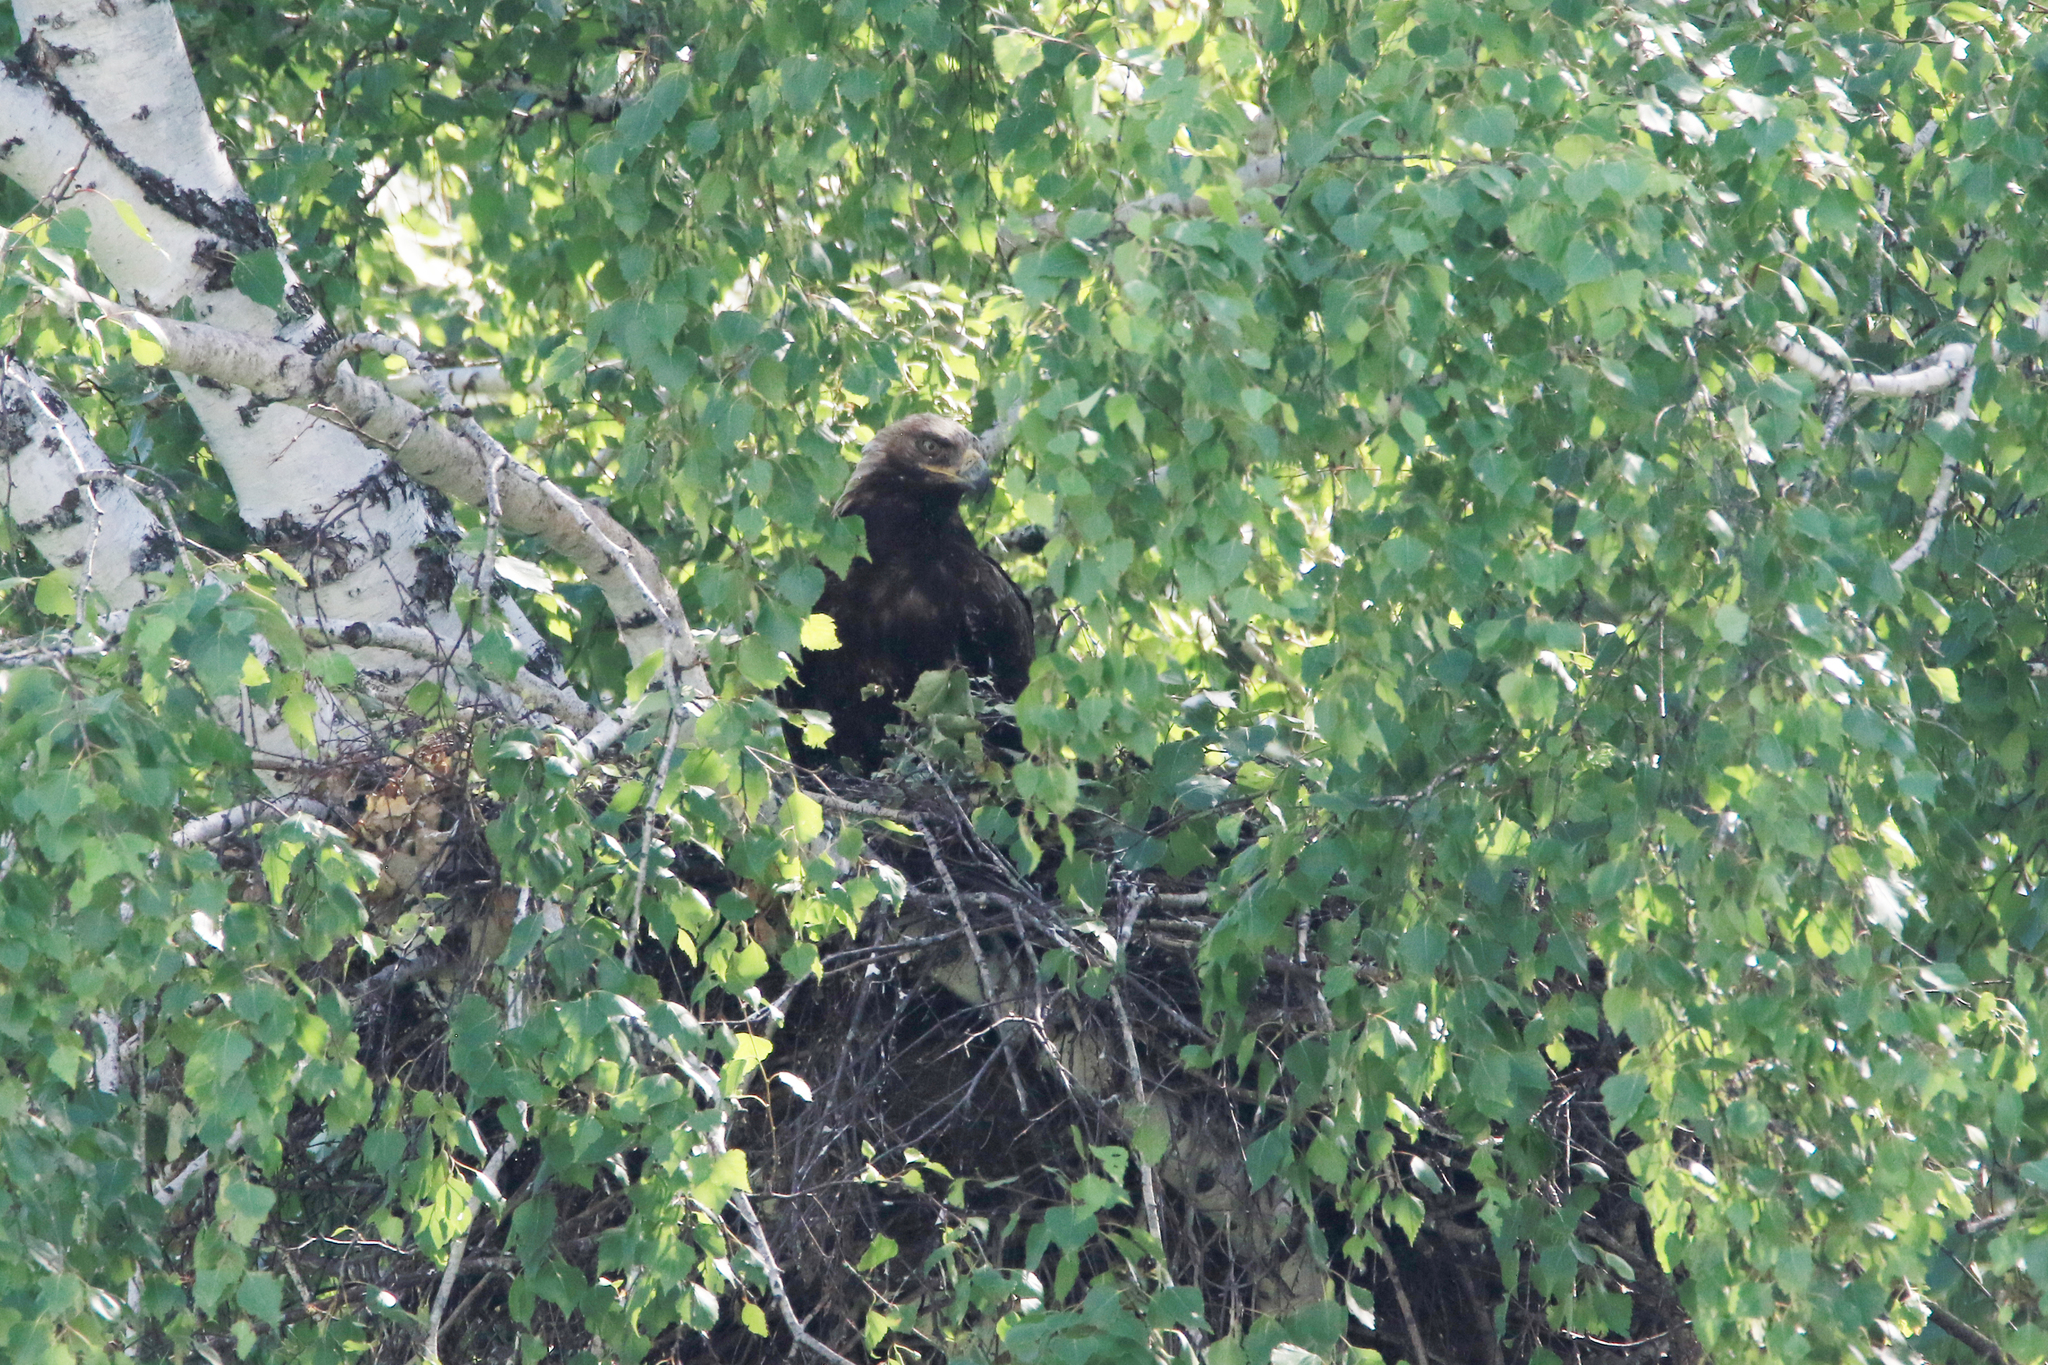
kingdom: Animalia
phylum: Chordata
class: Aves
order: Accipitriformes
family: Accipitridae
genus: Aquila
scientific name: Aquila heliaca
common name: Eastern imperial eagle
